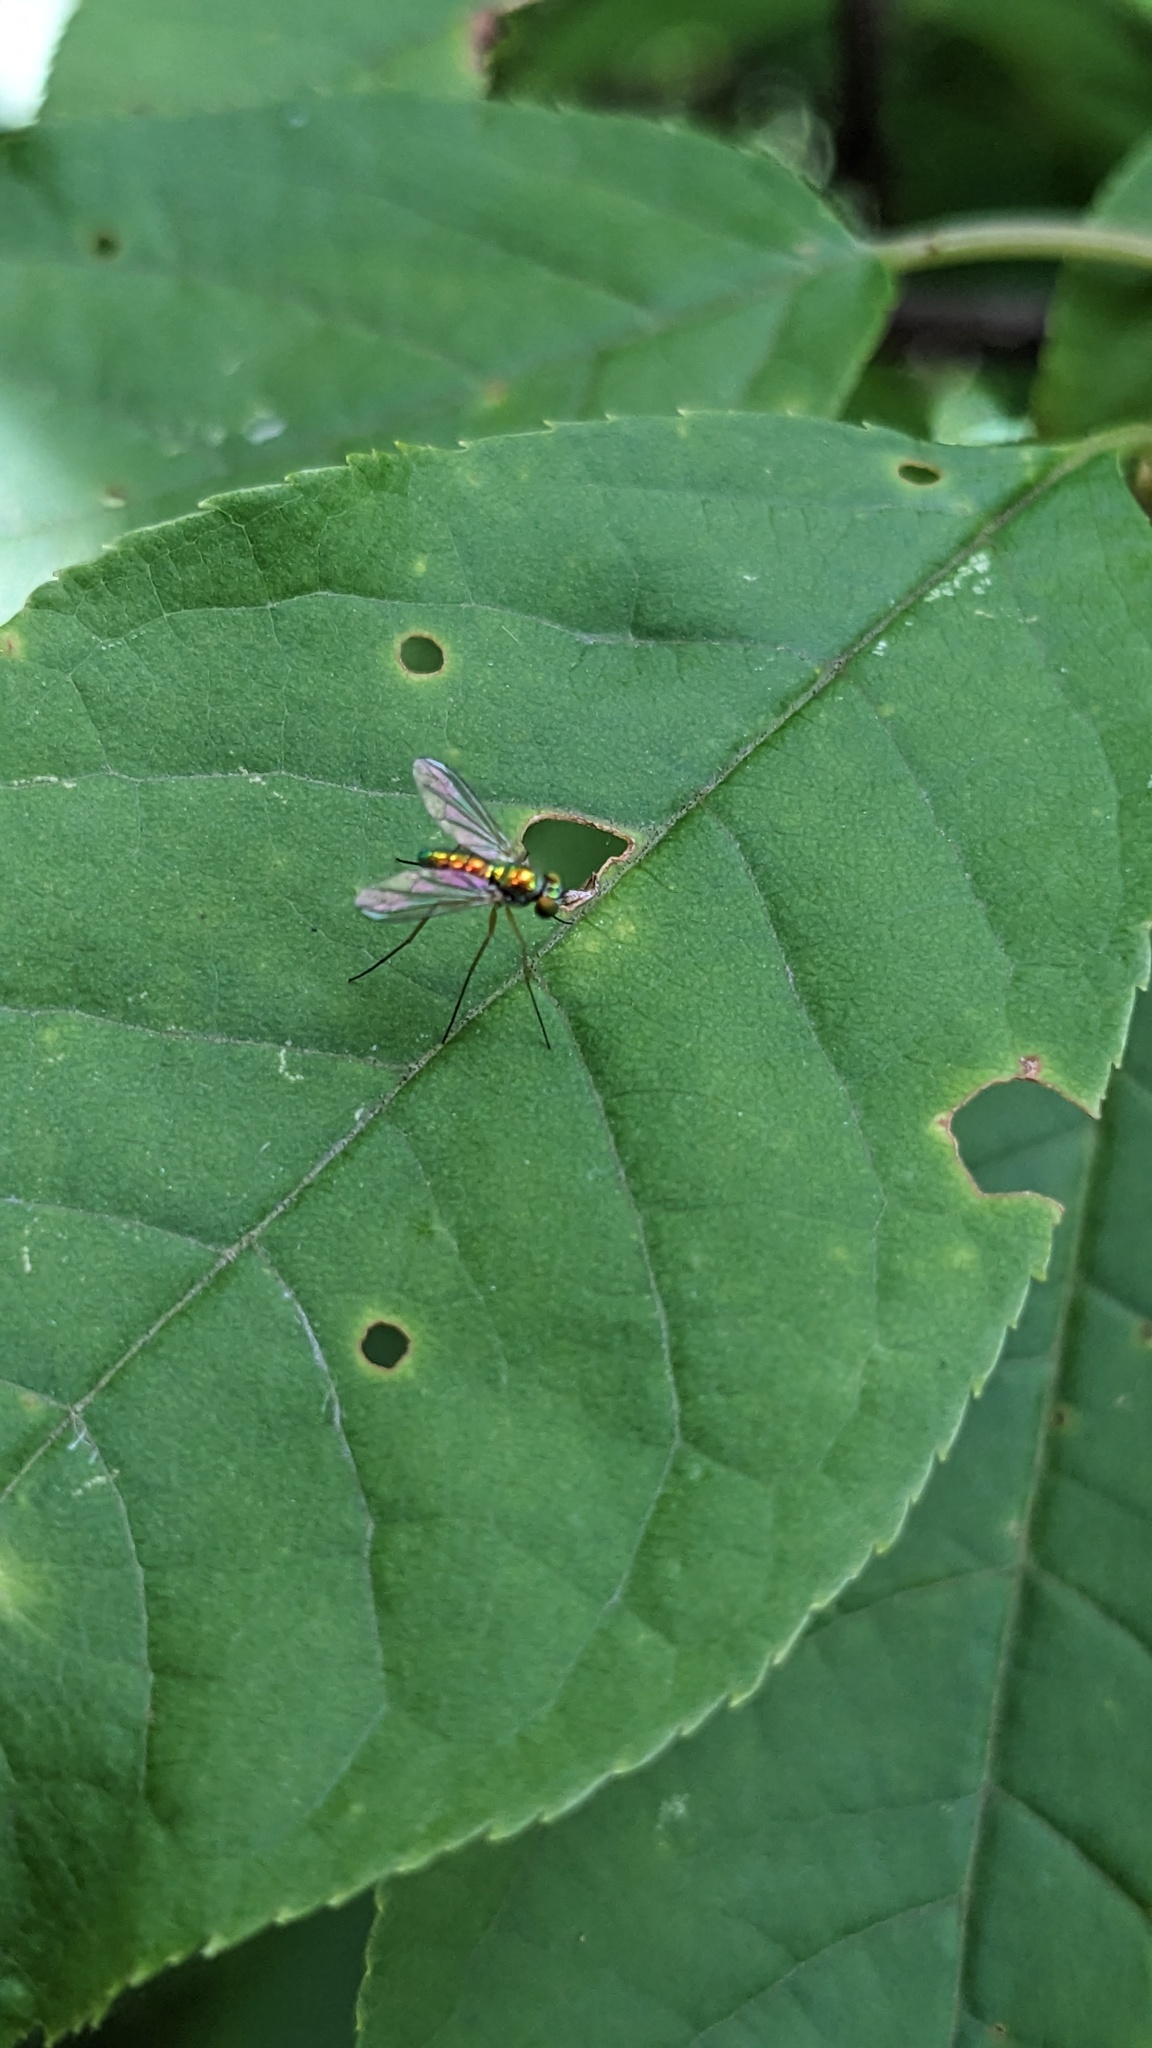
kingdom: Animalia
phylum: Arthropoda
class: Insecta
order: Diptera
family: Dolichopodidae
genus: Amblypsilopus
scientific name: Amblypsilopus scintillans
